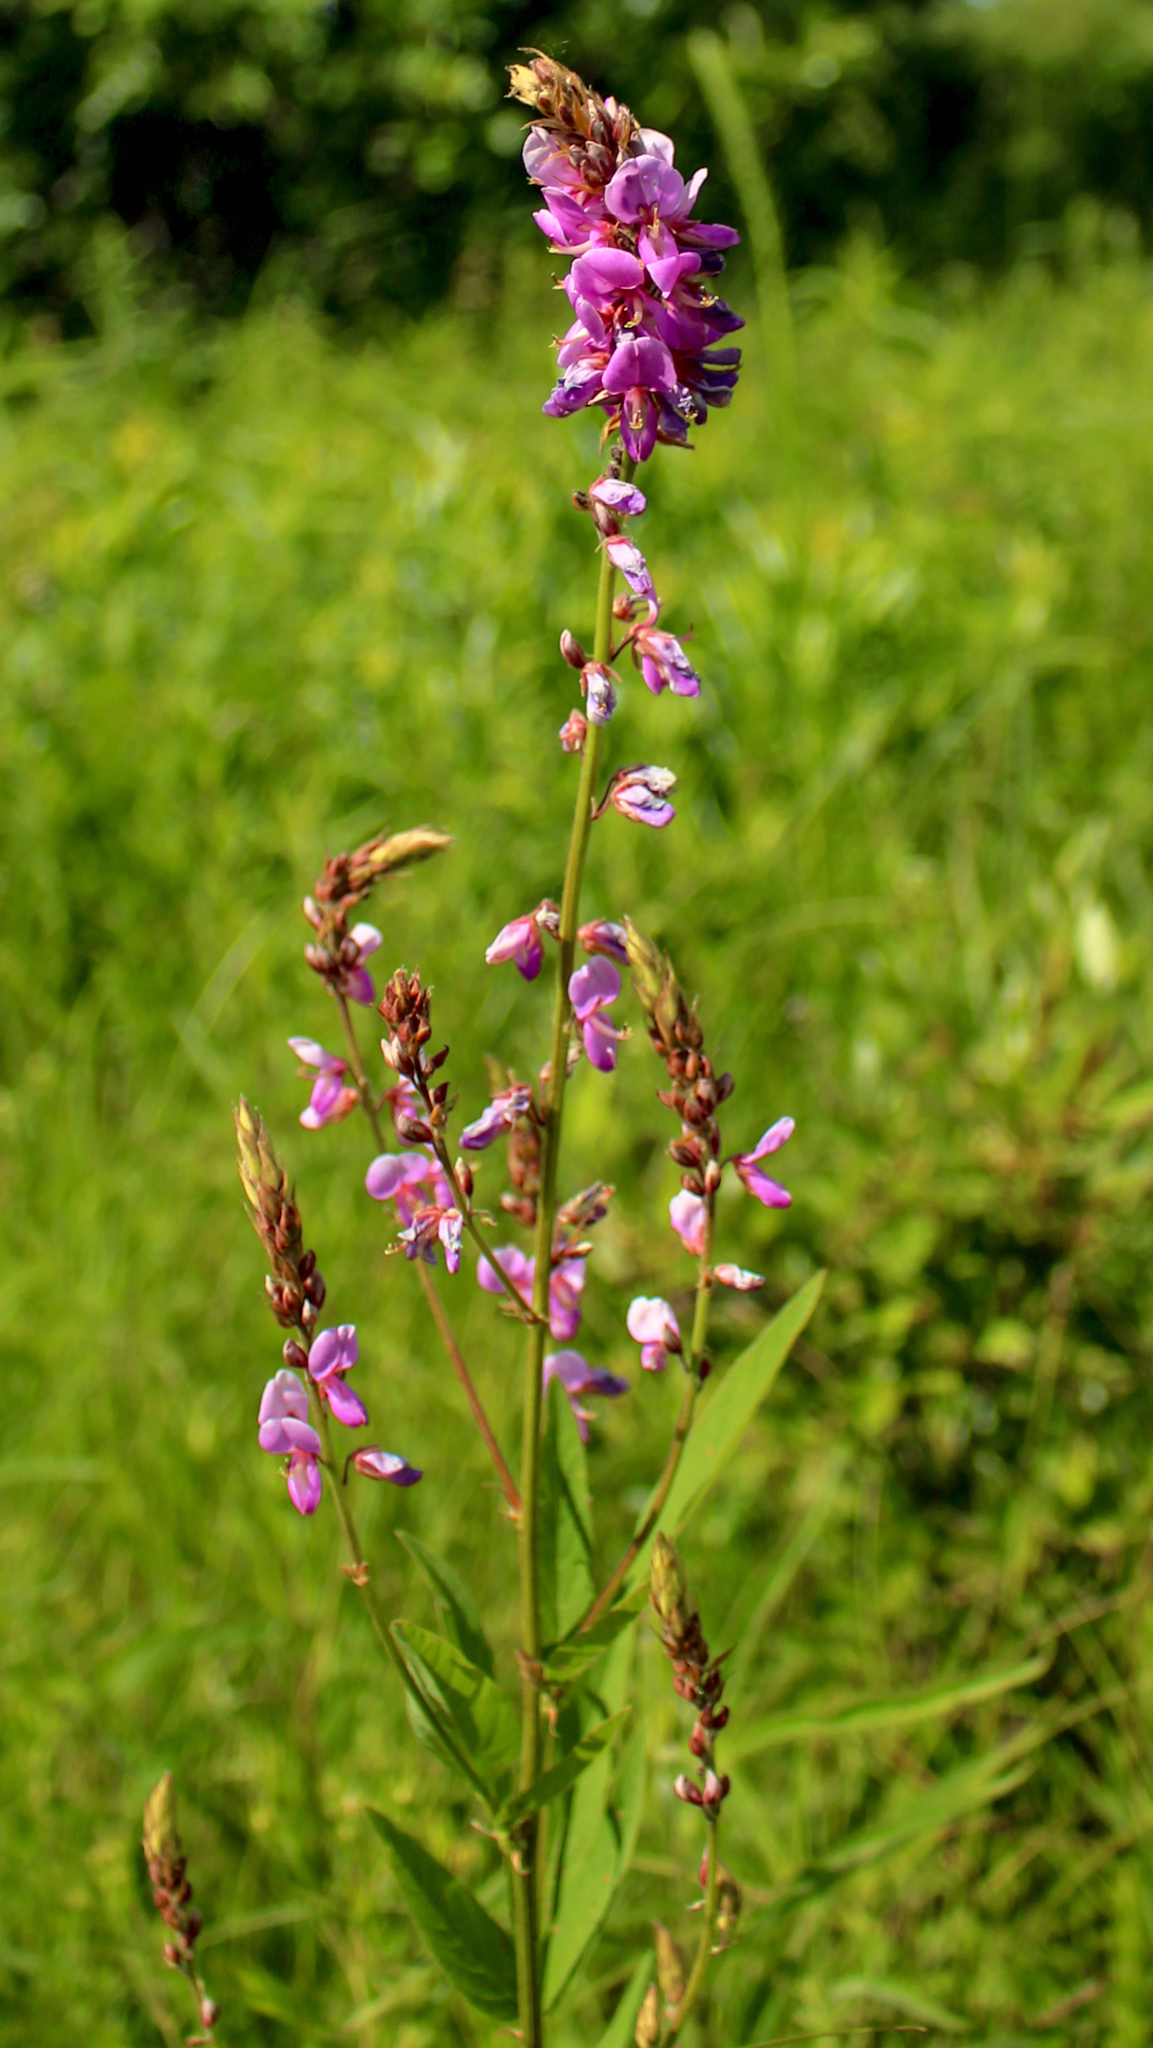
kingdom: Plantae
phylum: Tracheophyta
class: Magnoliopsida
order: Fabales
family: Fabaceae
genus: Desmodium
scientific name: Desmodium canadense
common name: Canada tick-trefoil
